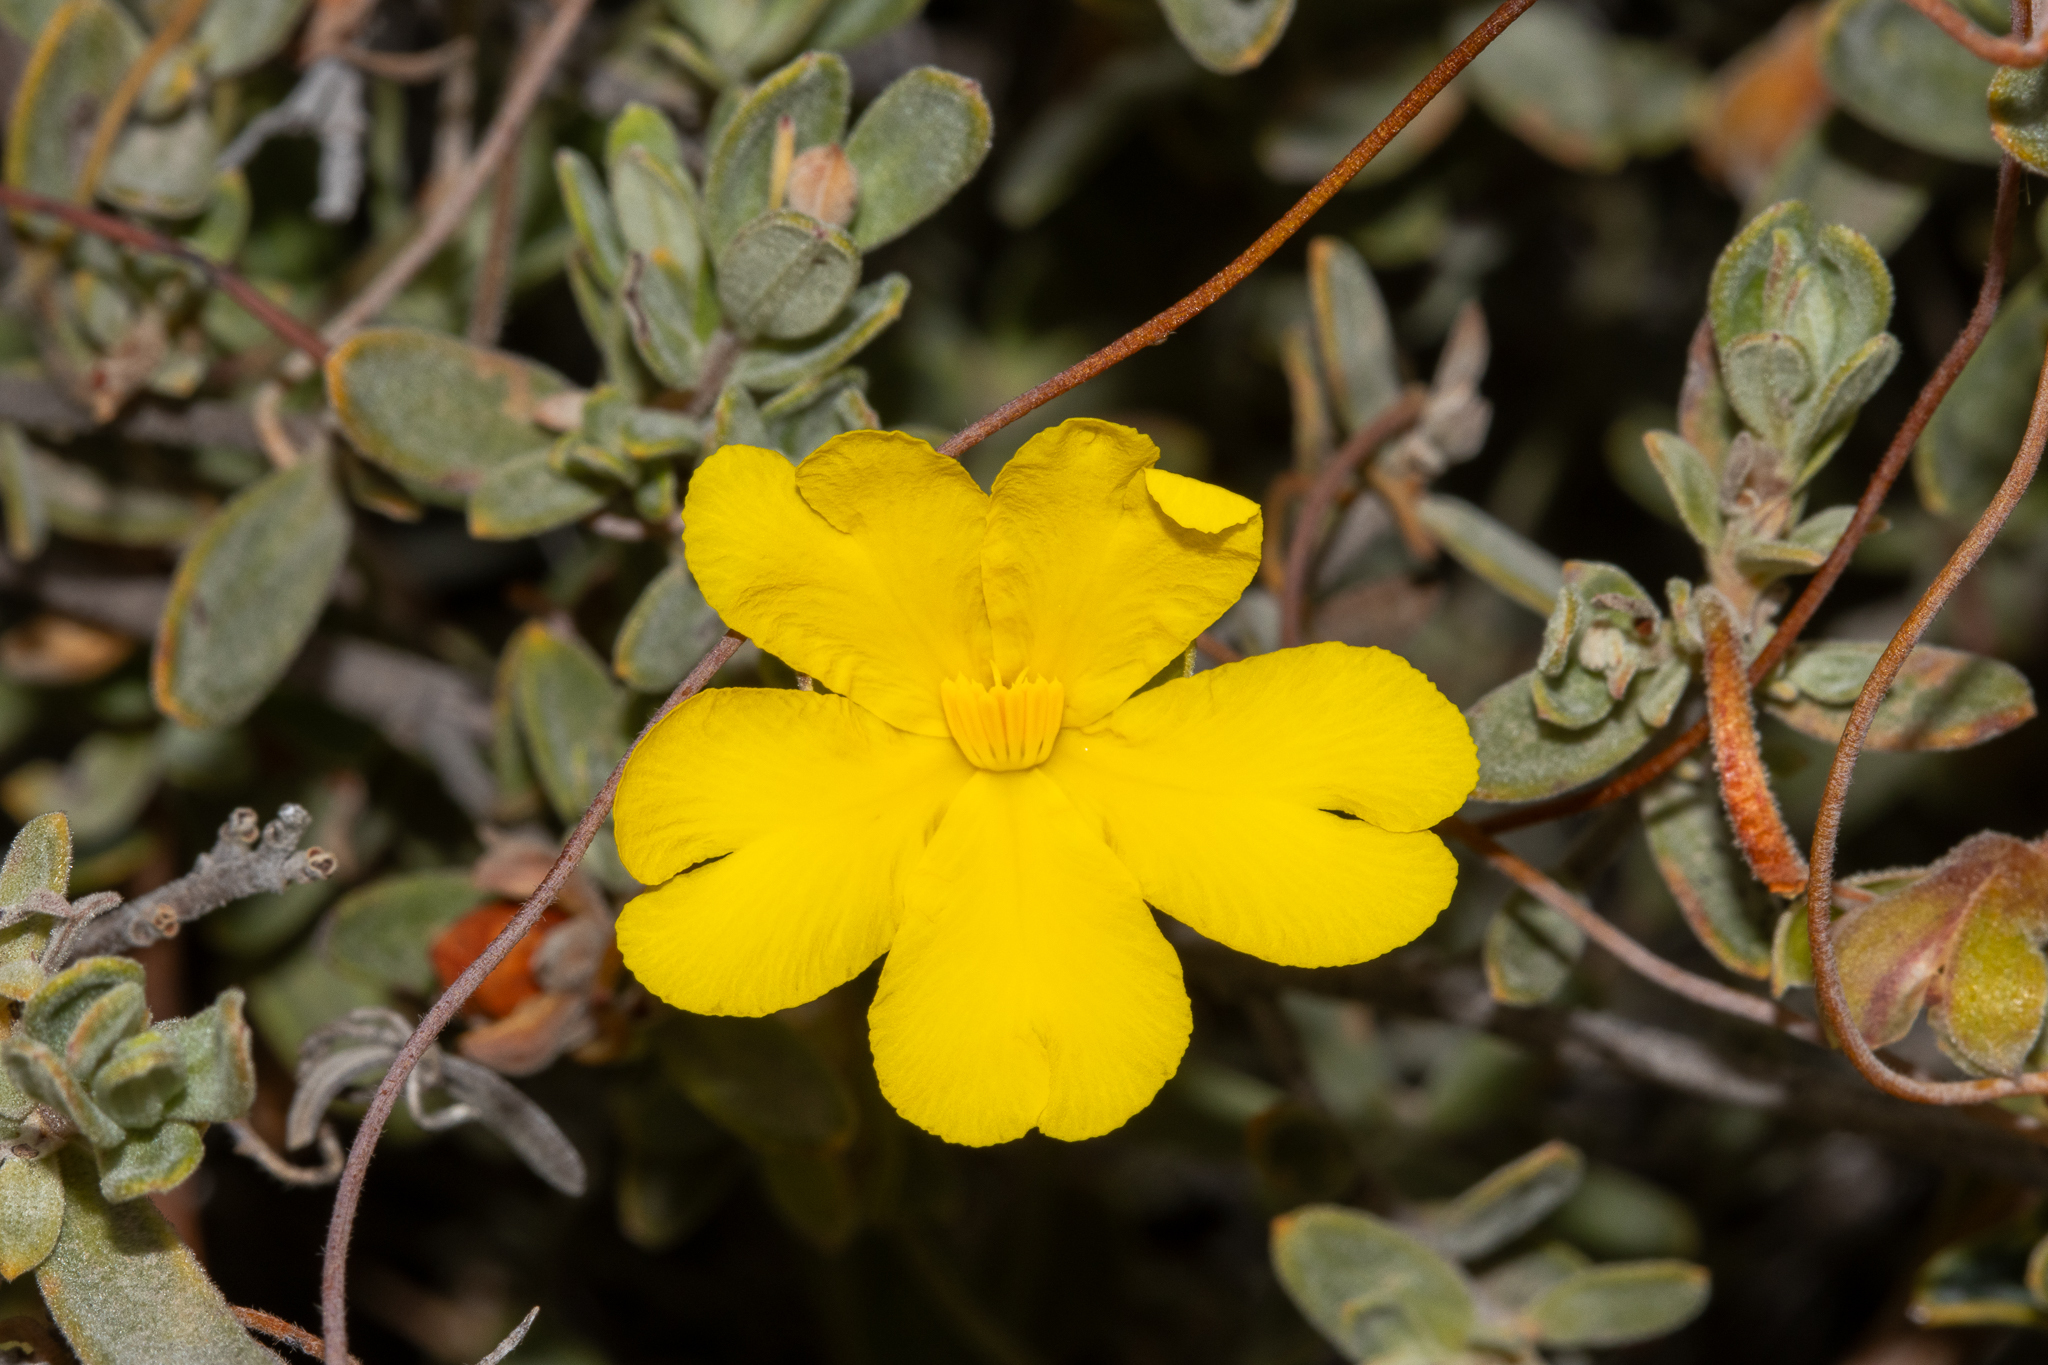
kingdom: Plantae
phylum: Tracheophyta
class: Magnoliopsida
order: Dilleniales
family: Dilleniaceae
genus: Hibbertia
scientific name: Hibbertia hypericoides
